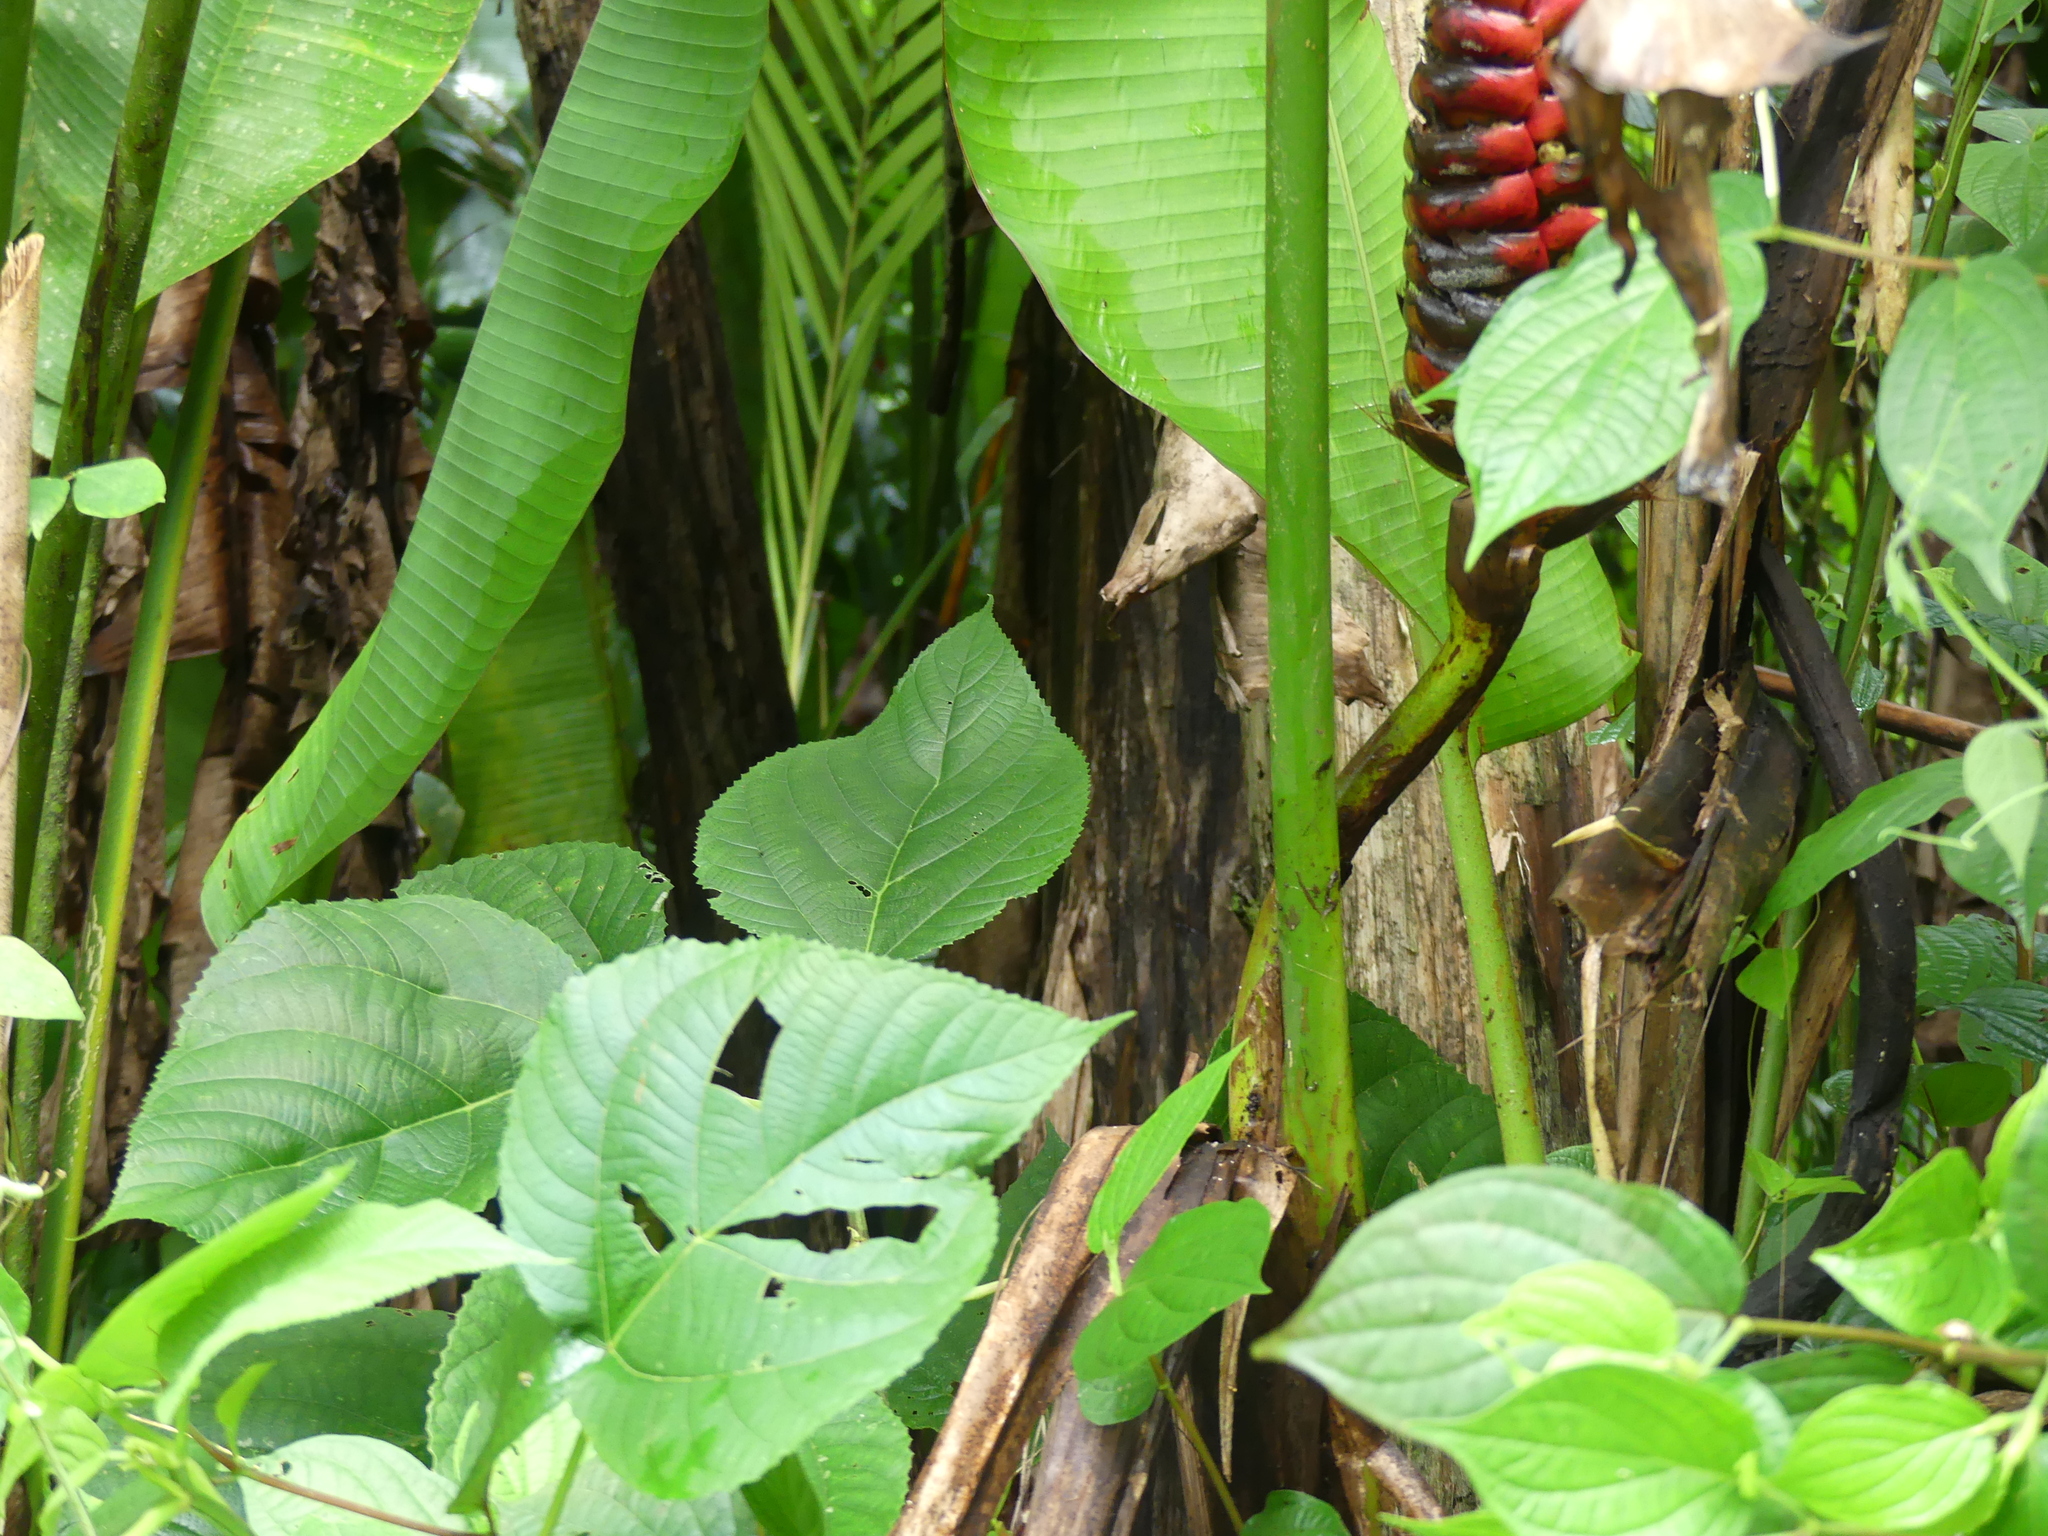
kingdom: Plantae
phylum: Tracheophyta
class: Liliopsida
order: Zingiberales
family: Heliconiaceae
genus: Heliconia
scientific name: Heliconia imbricata
